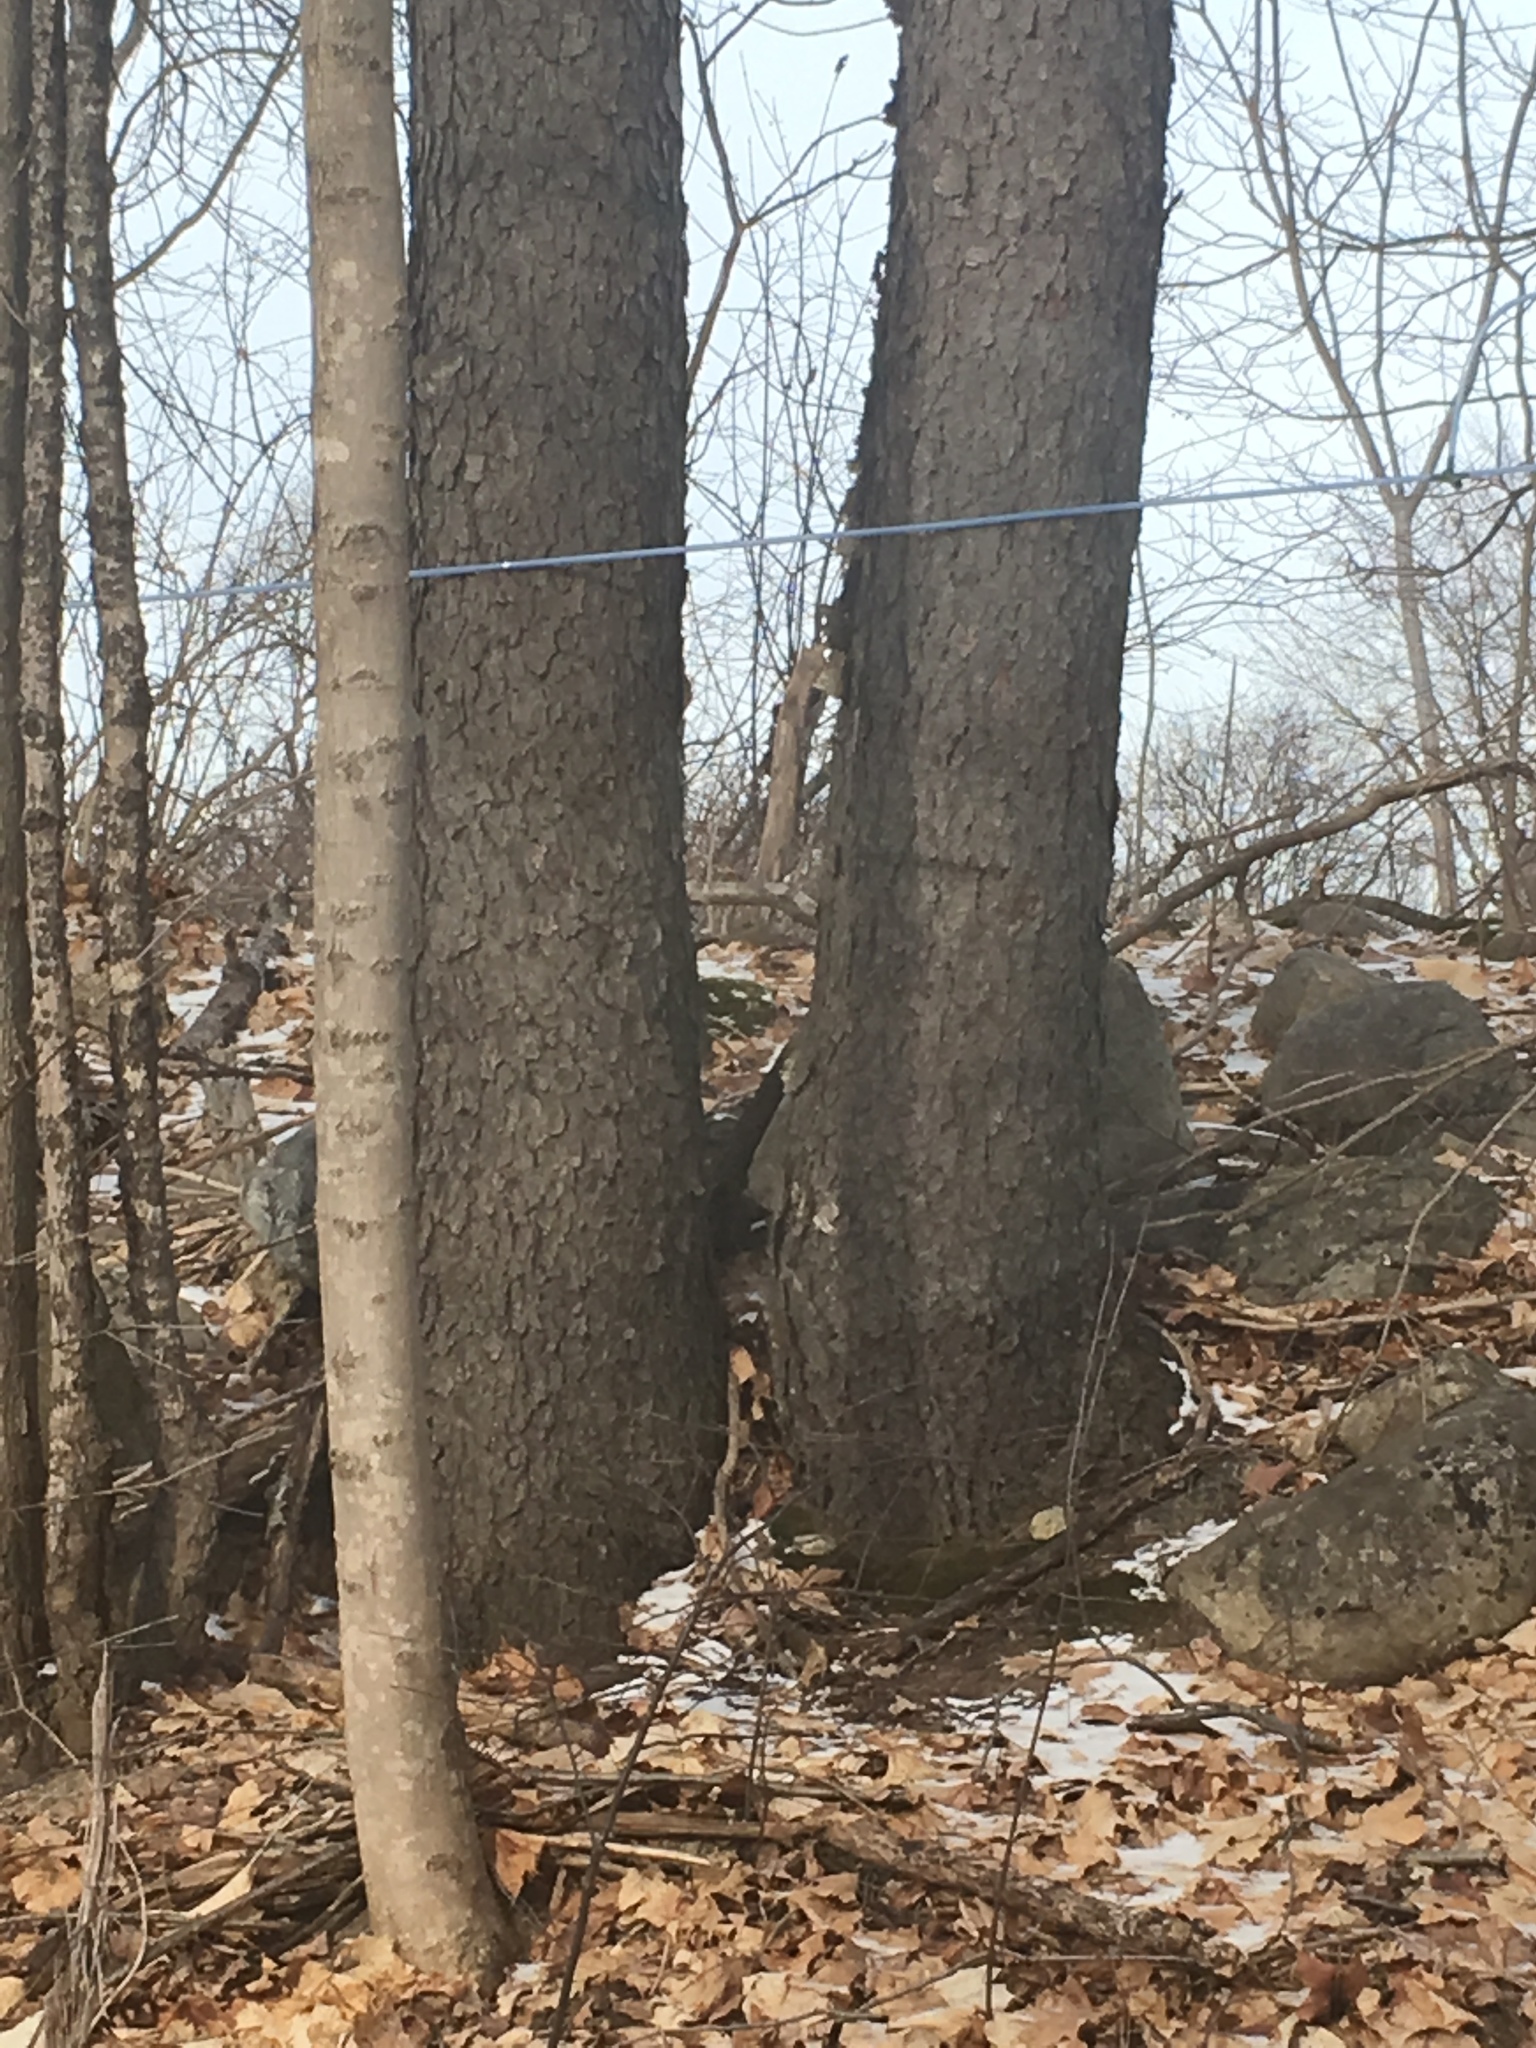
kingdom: Plantae
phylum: Tracheophyta
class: Magnoliopsida
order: Rosales
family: Rosaceae
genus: Prunus
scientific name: Prunus serotina
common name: Black cherry
